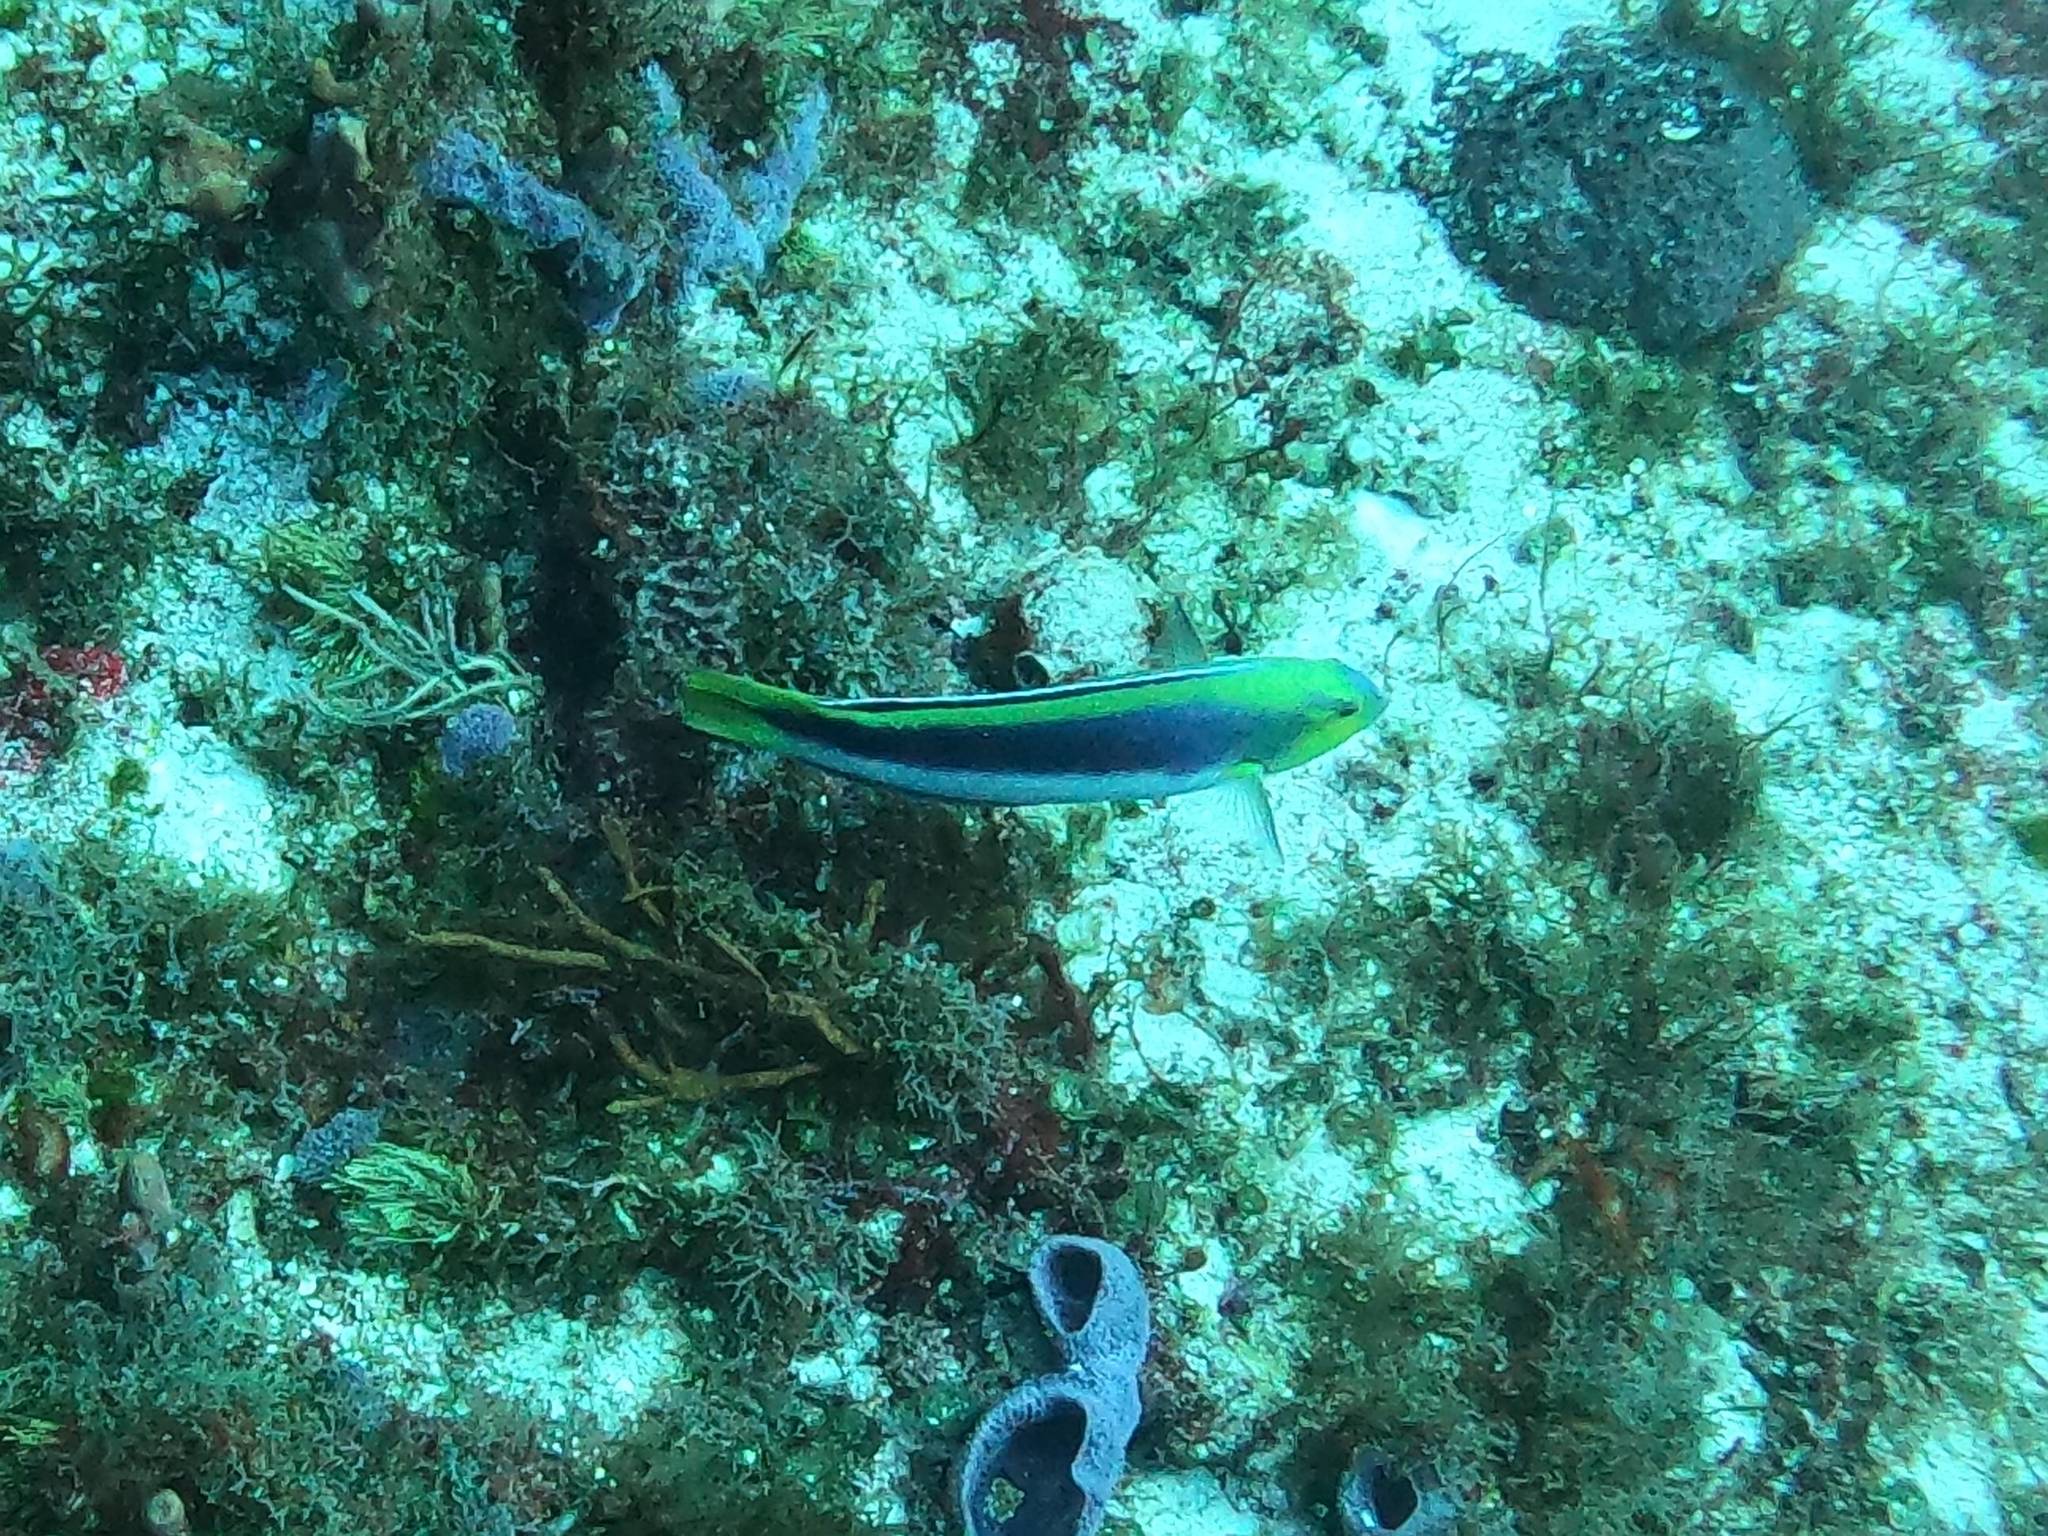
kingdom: Animalia
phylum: Chordata
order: Perciformes
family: Labridae
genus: Halichoeres
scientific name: Halichoeres cyanocephalus
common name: Yellowcheek wrasse
